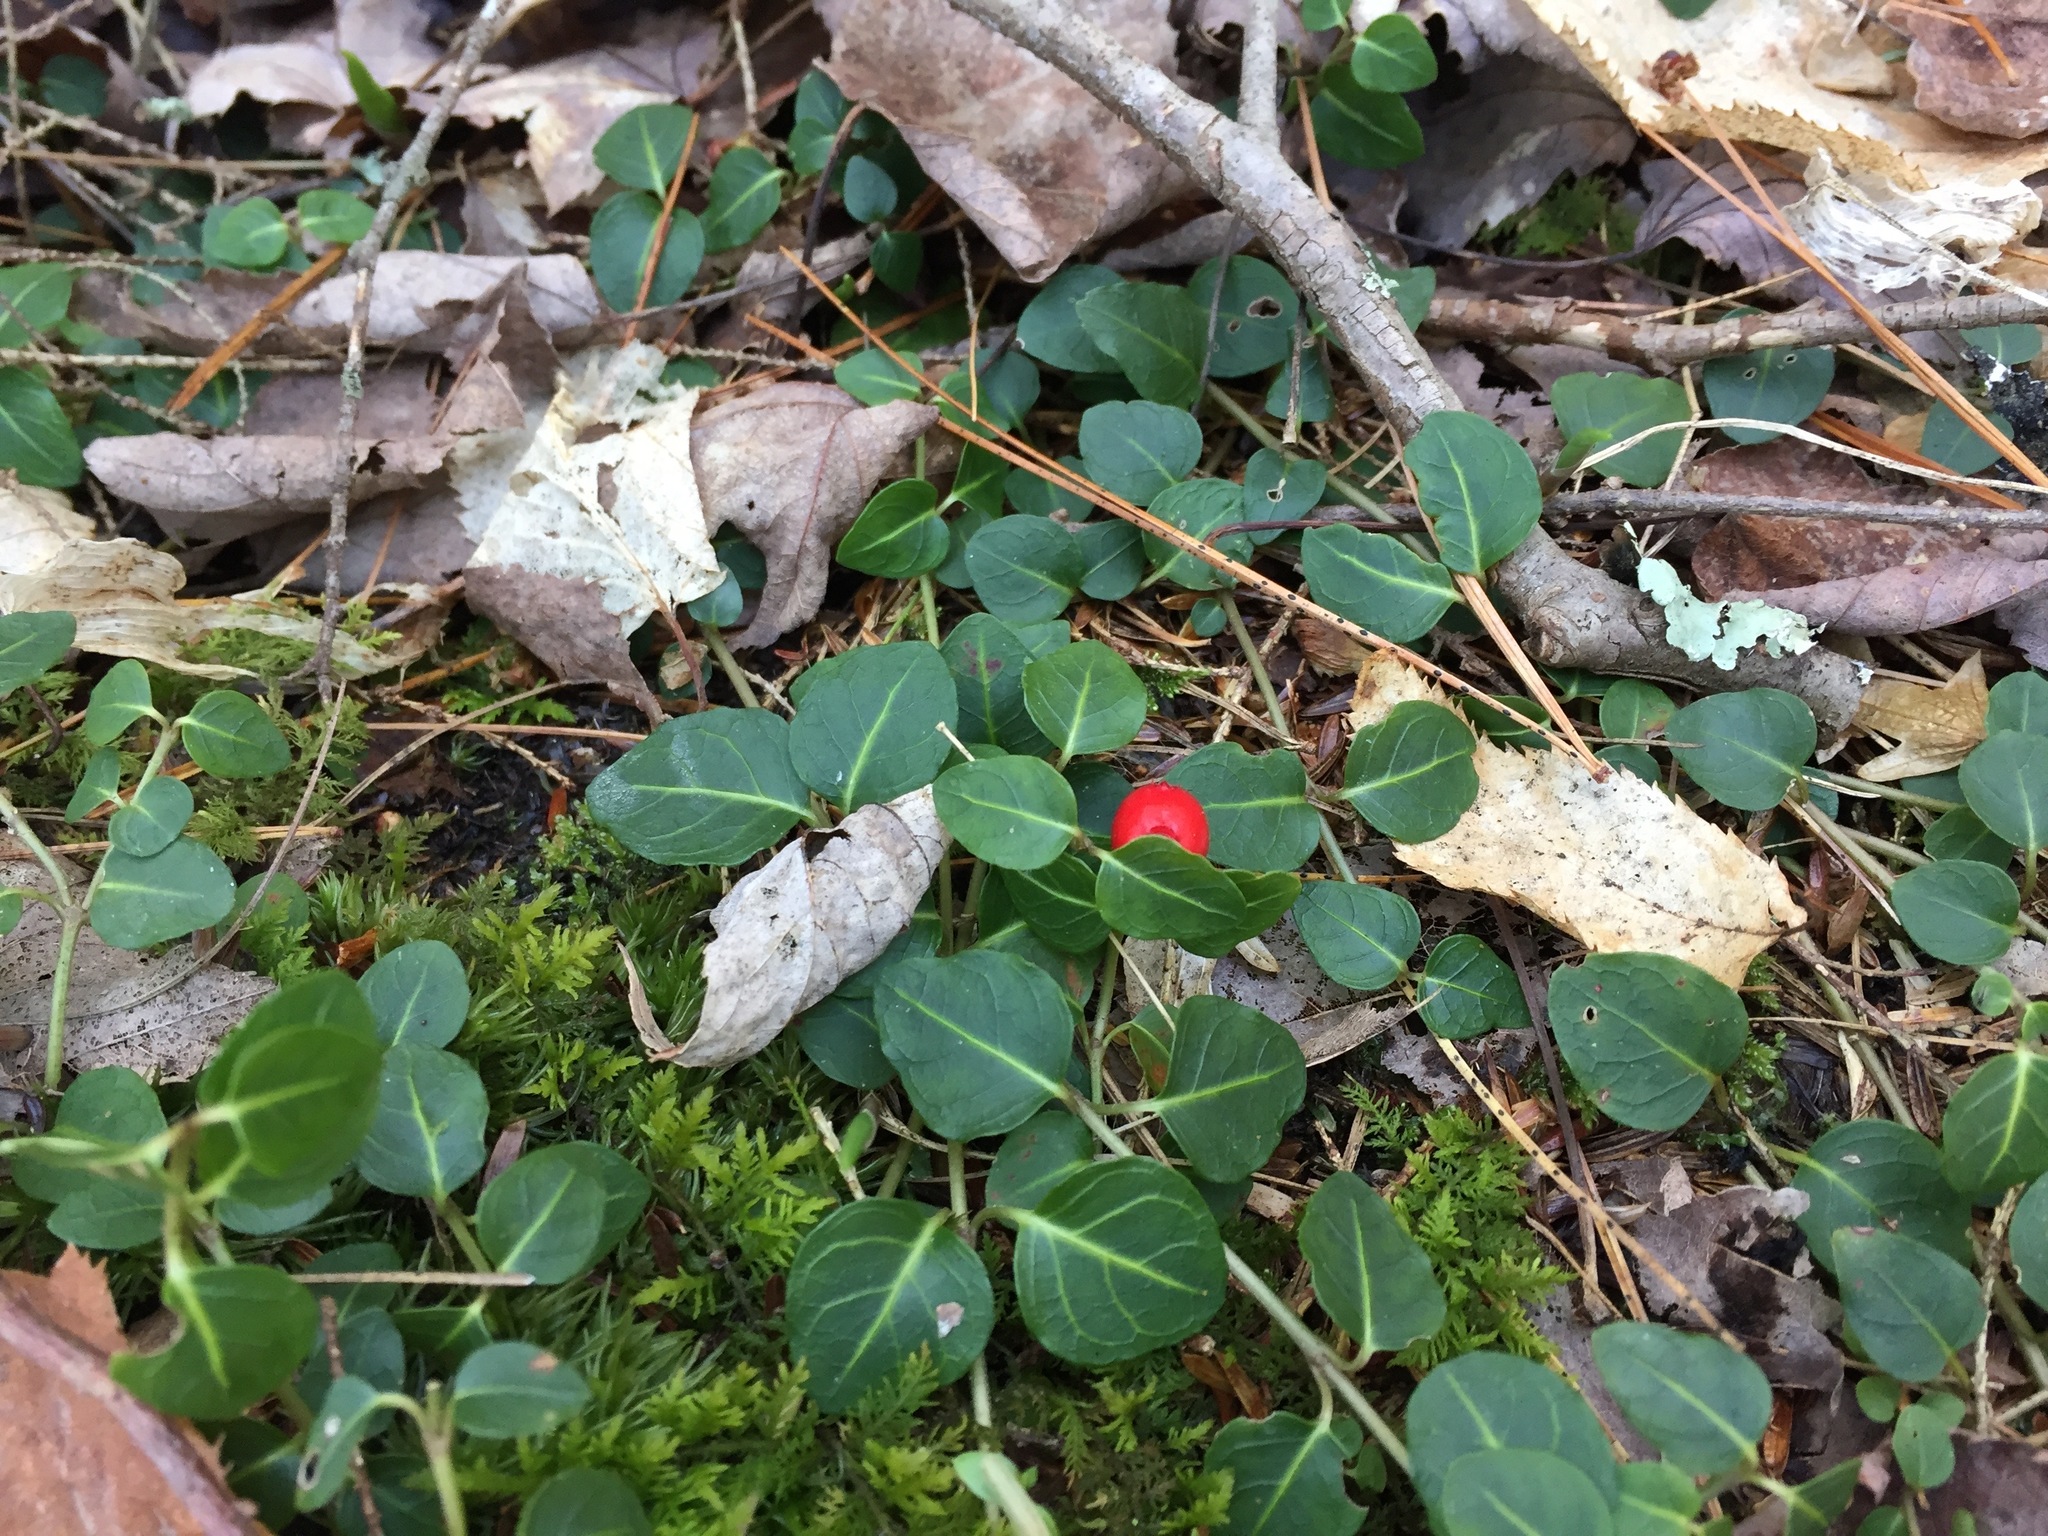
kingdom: Plantae
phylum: Tracheophyta
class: Magnoliopsida
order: Gentianales
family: Rubiaceae
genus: Mitchella
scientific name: Mitchella repens
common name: Partridge-berry
